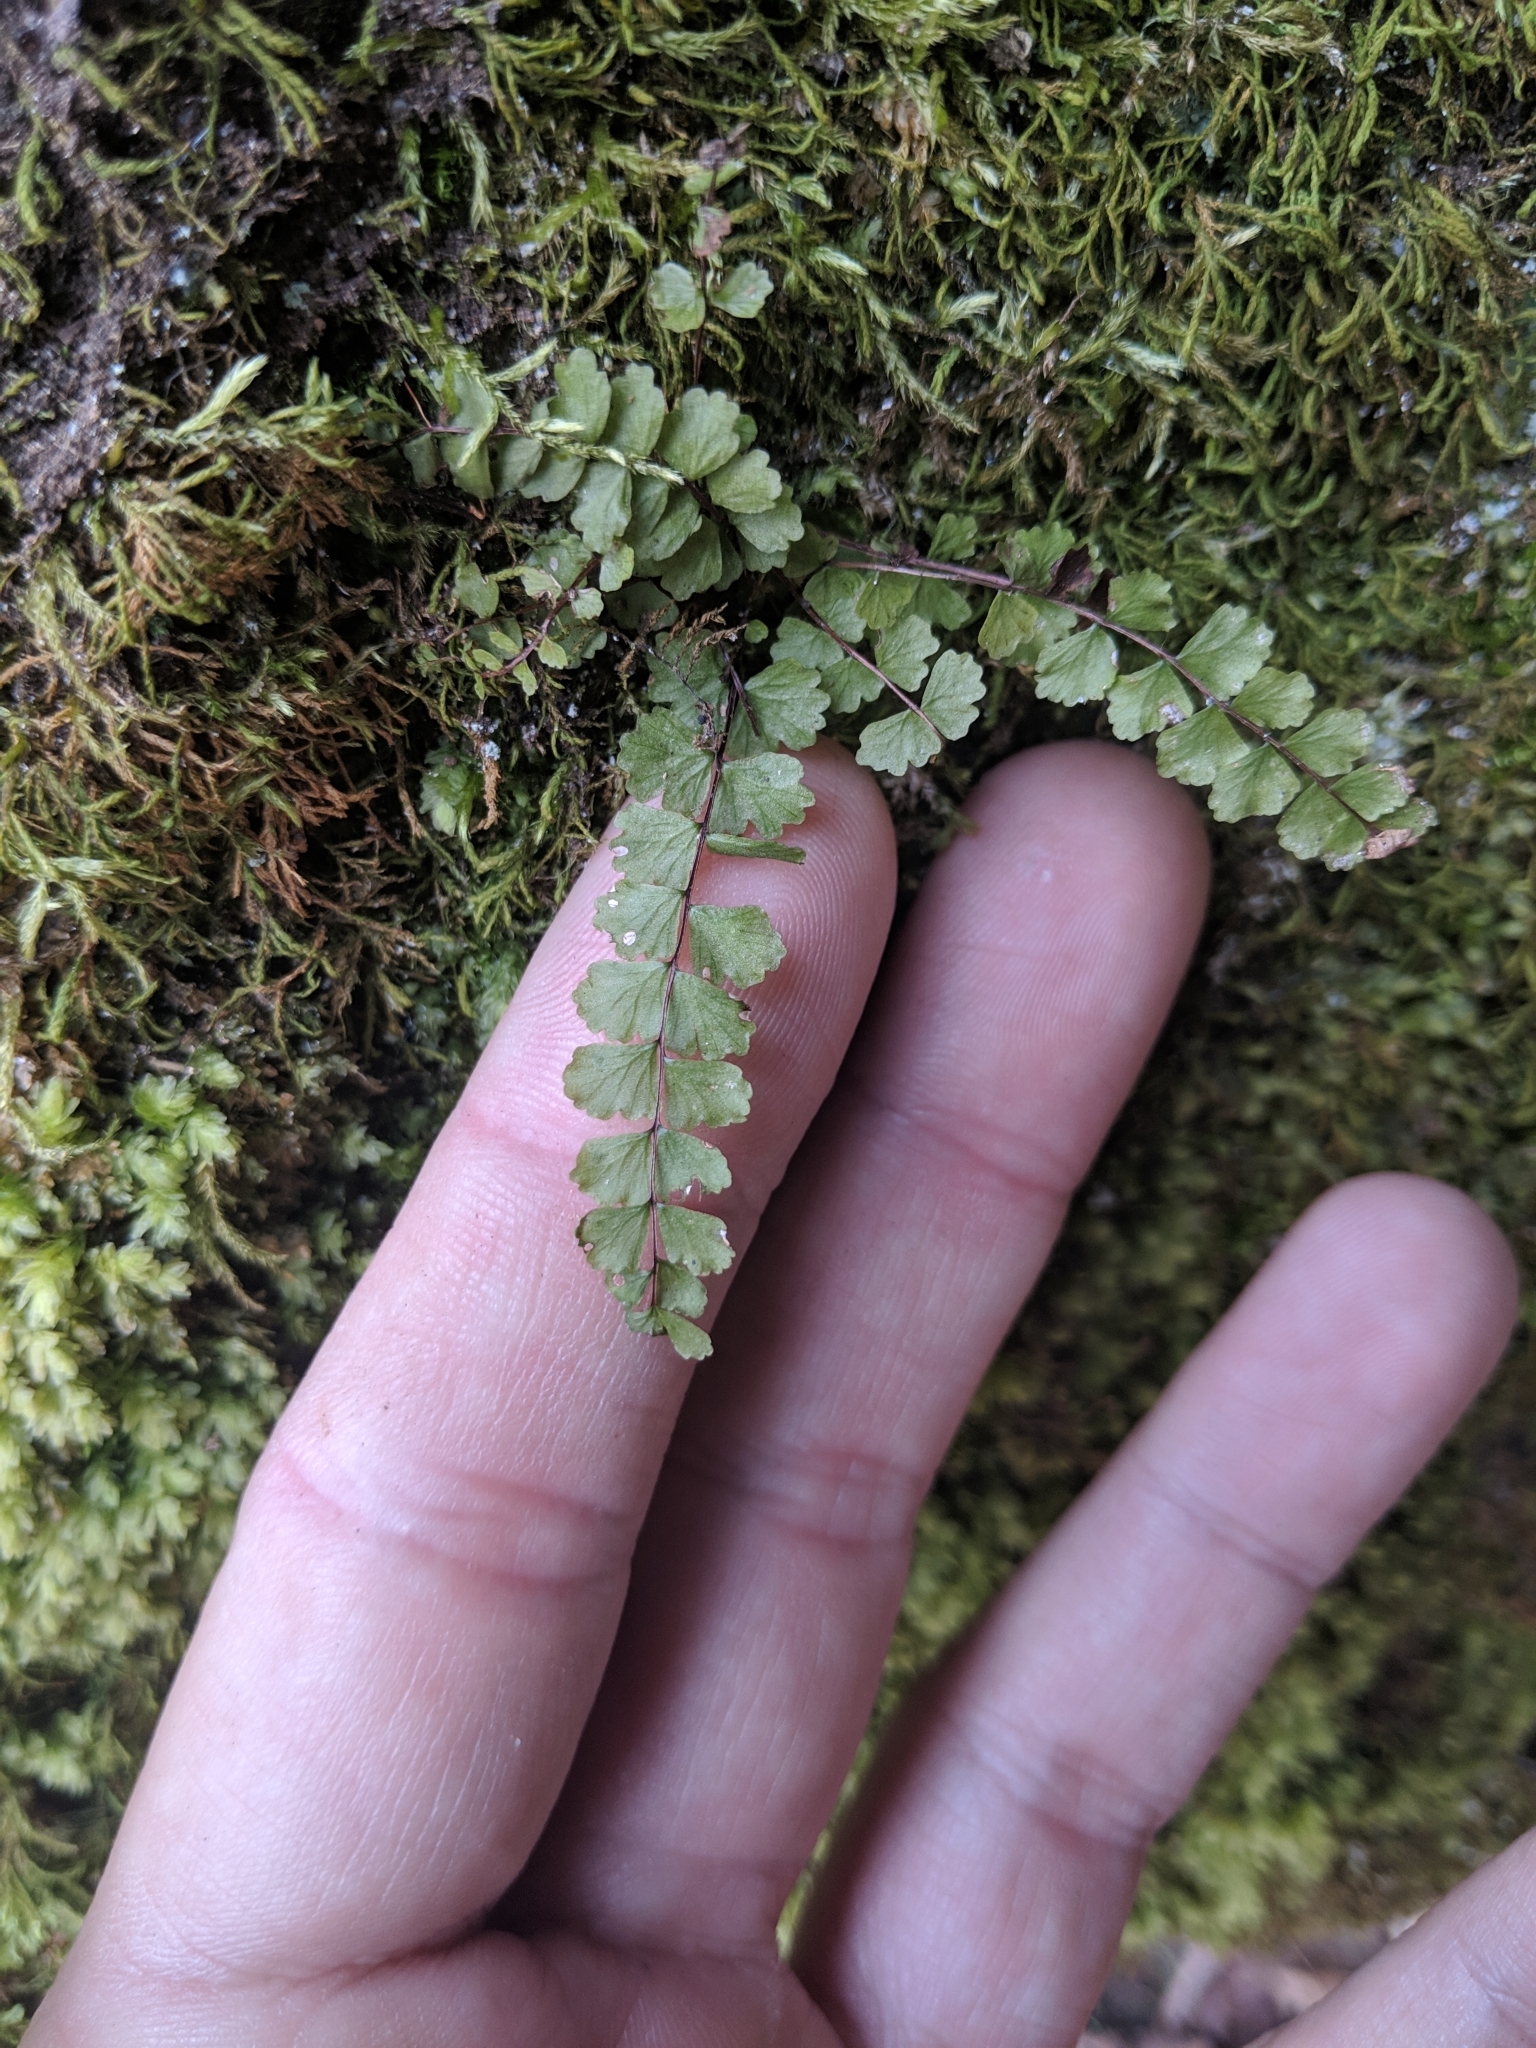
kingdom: Plantae
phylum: Tracheophyta
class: Polypodiopsida
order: Polypodiales
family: Aspleniaceae
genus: Asplenium
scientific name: Asplenium trichomanes
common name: Maidenhair spleenwort
